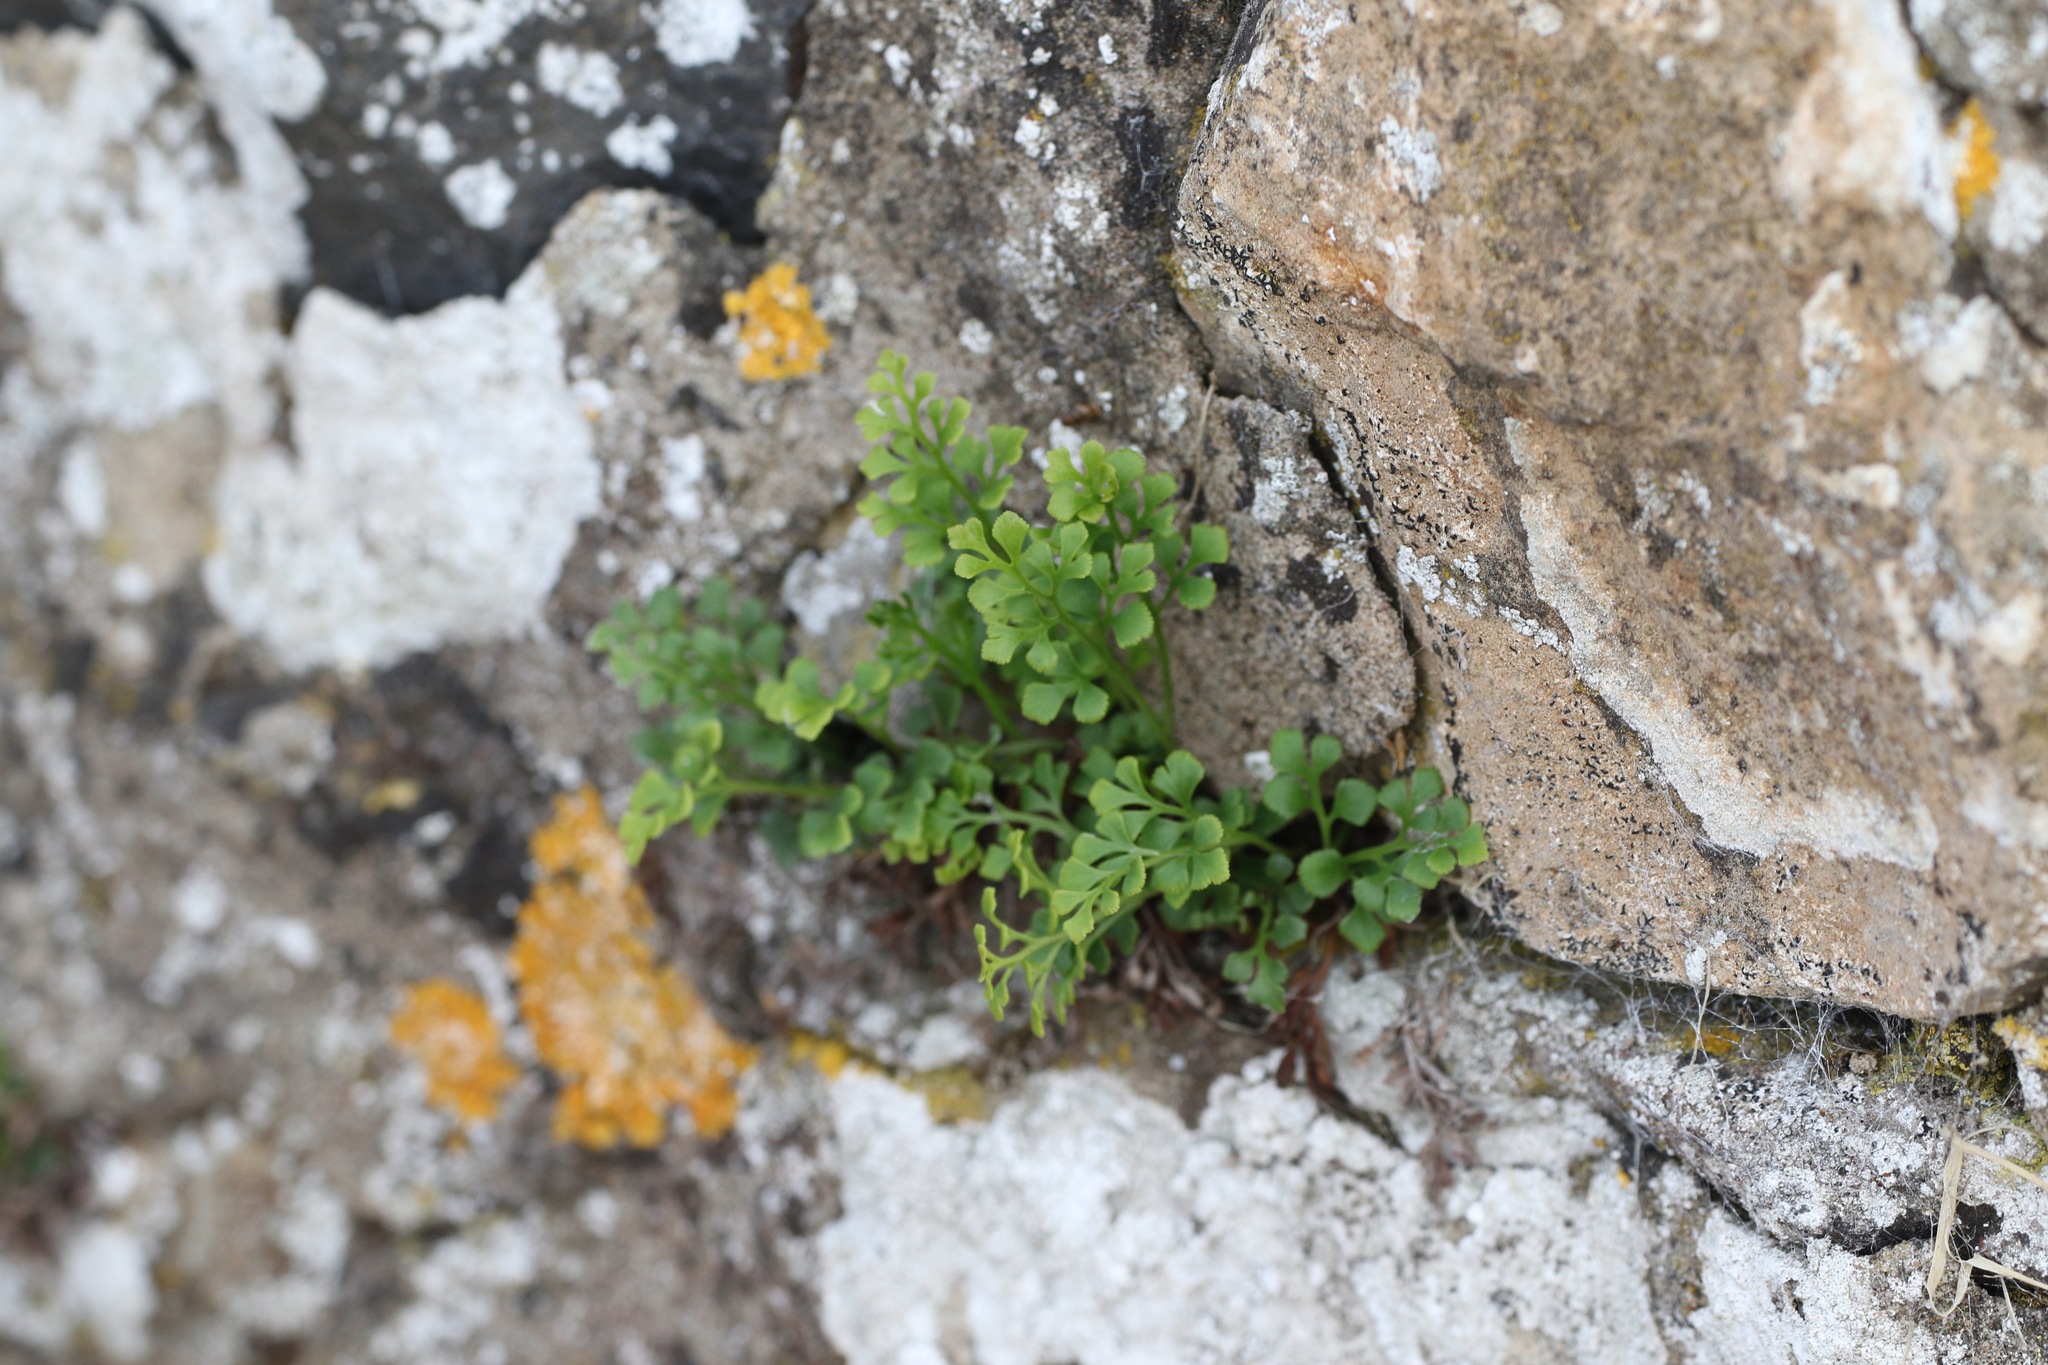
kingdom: Plantae
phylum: Tracheophyta
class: Polypodiopsida
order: Polypodiales
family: Aspleniaceae
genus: Asplenium
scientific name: Asplenium ruta-muraria
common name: Wall-rue
